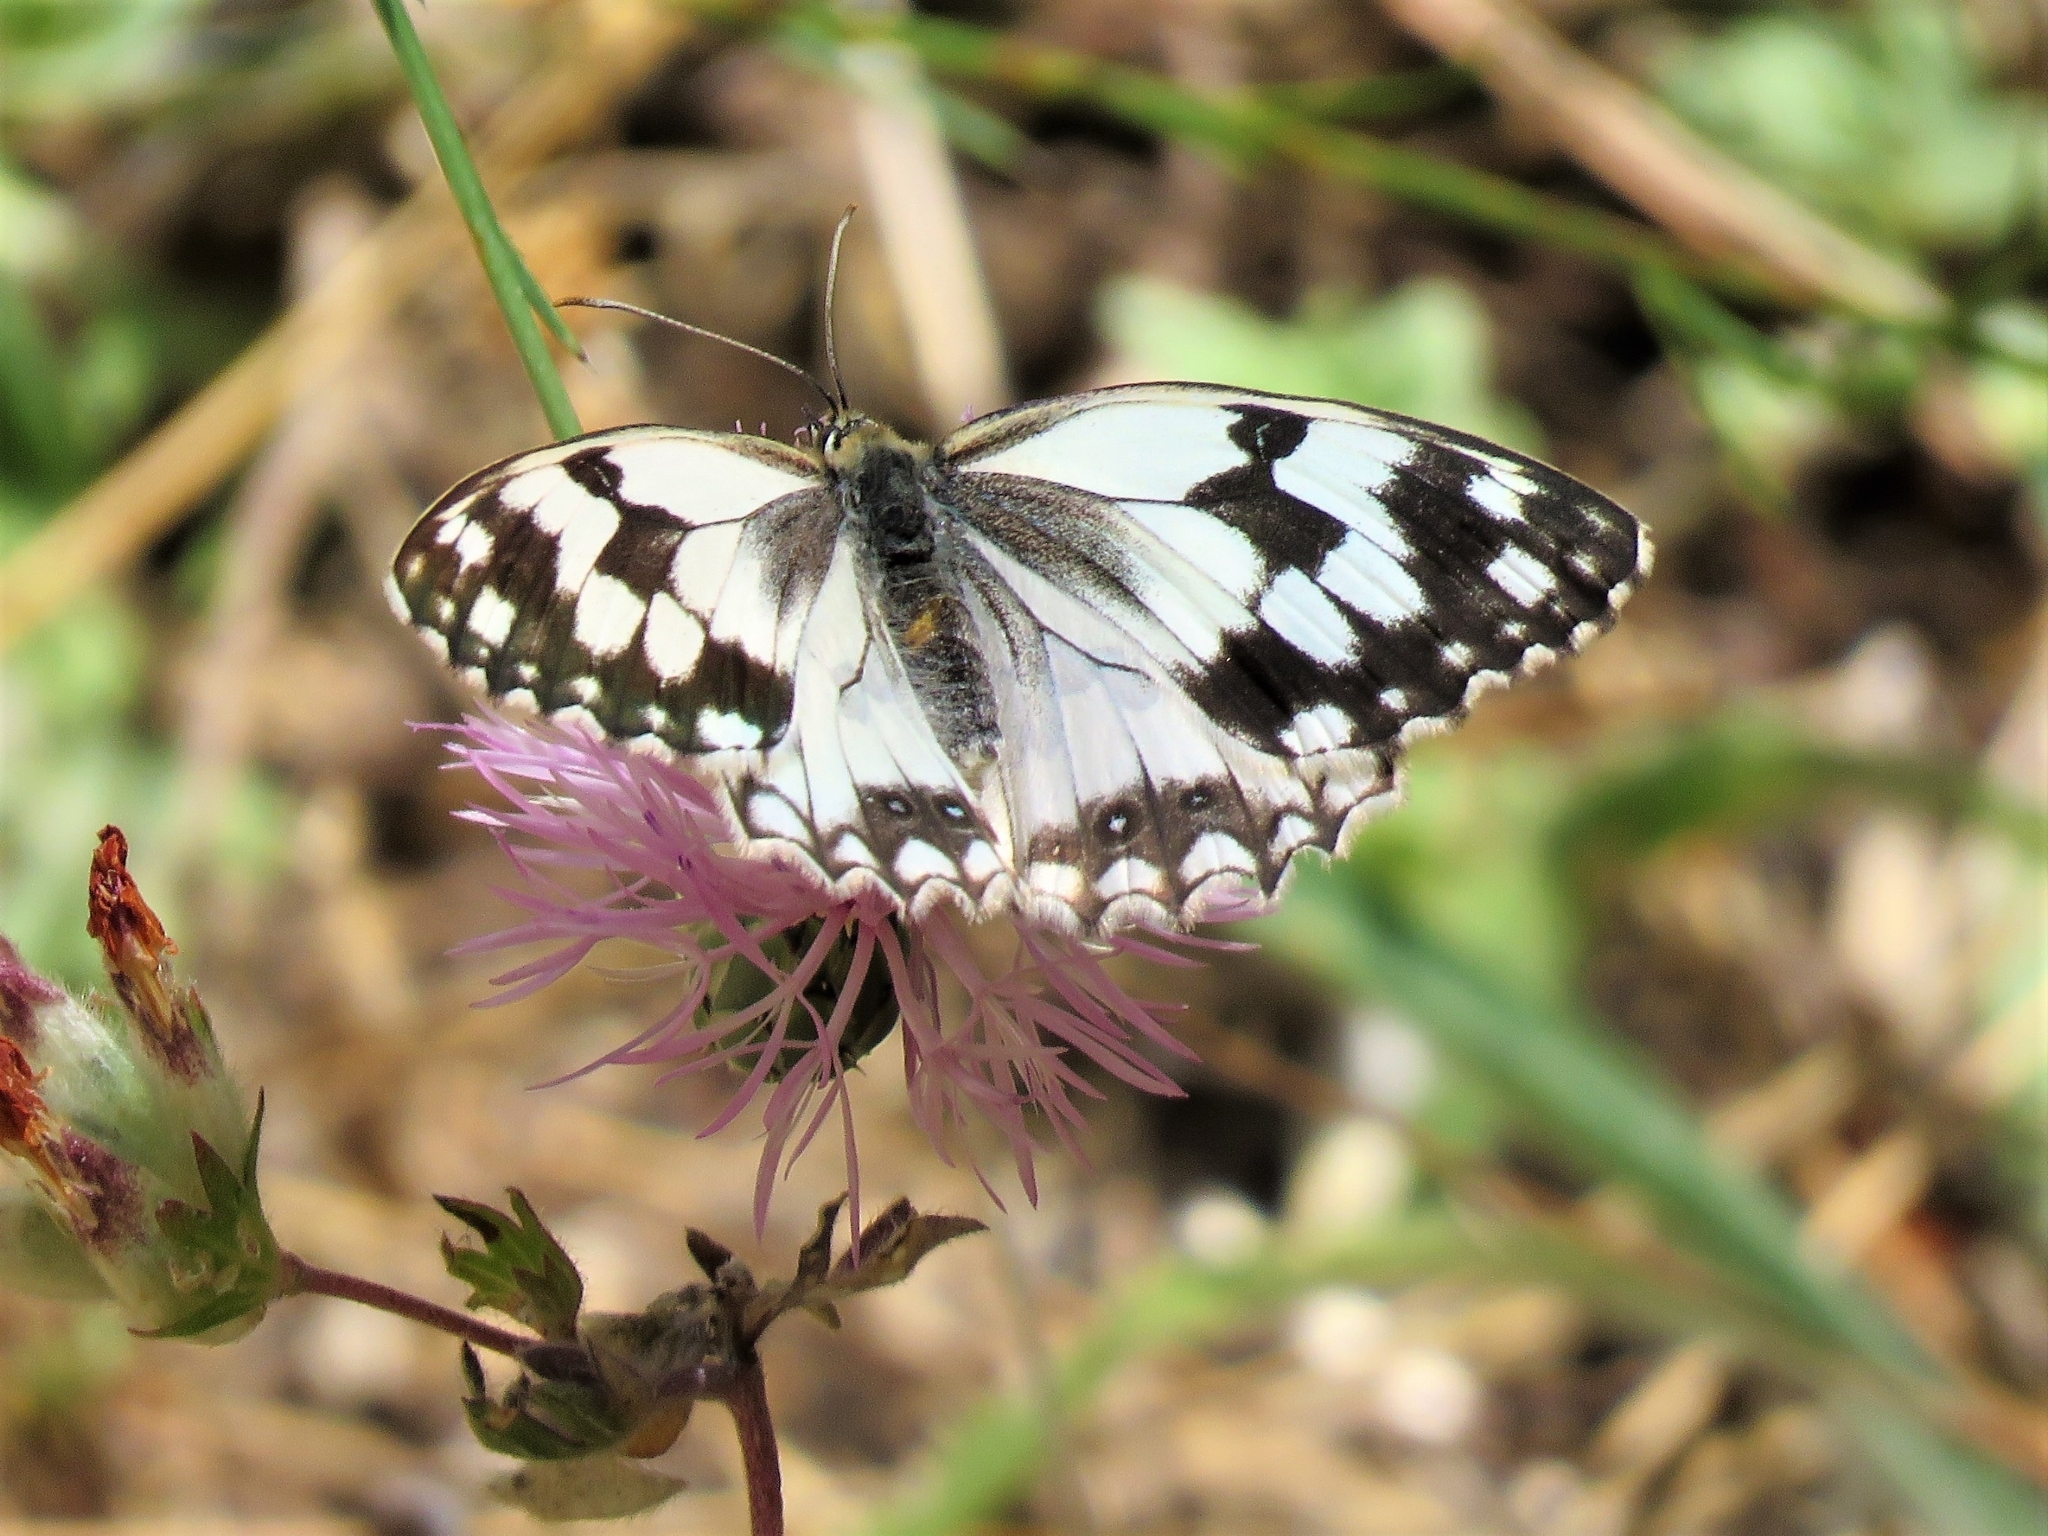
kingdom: Animalia
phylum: Arthropoda
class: Insecta
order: Lepidoptera
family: Nymphalidae
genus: Melanargia
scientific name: Melanargia lachesis
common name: Iberian marbled white
